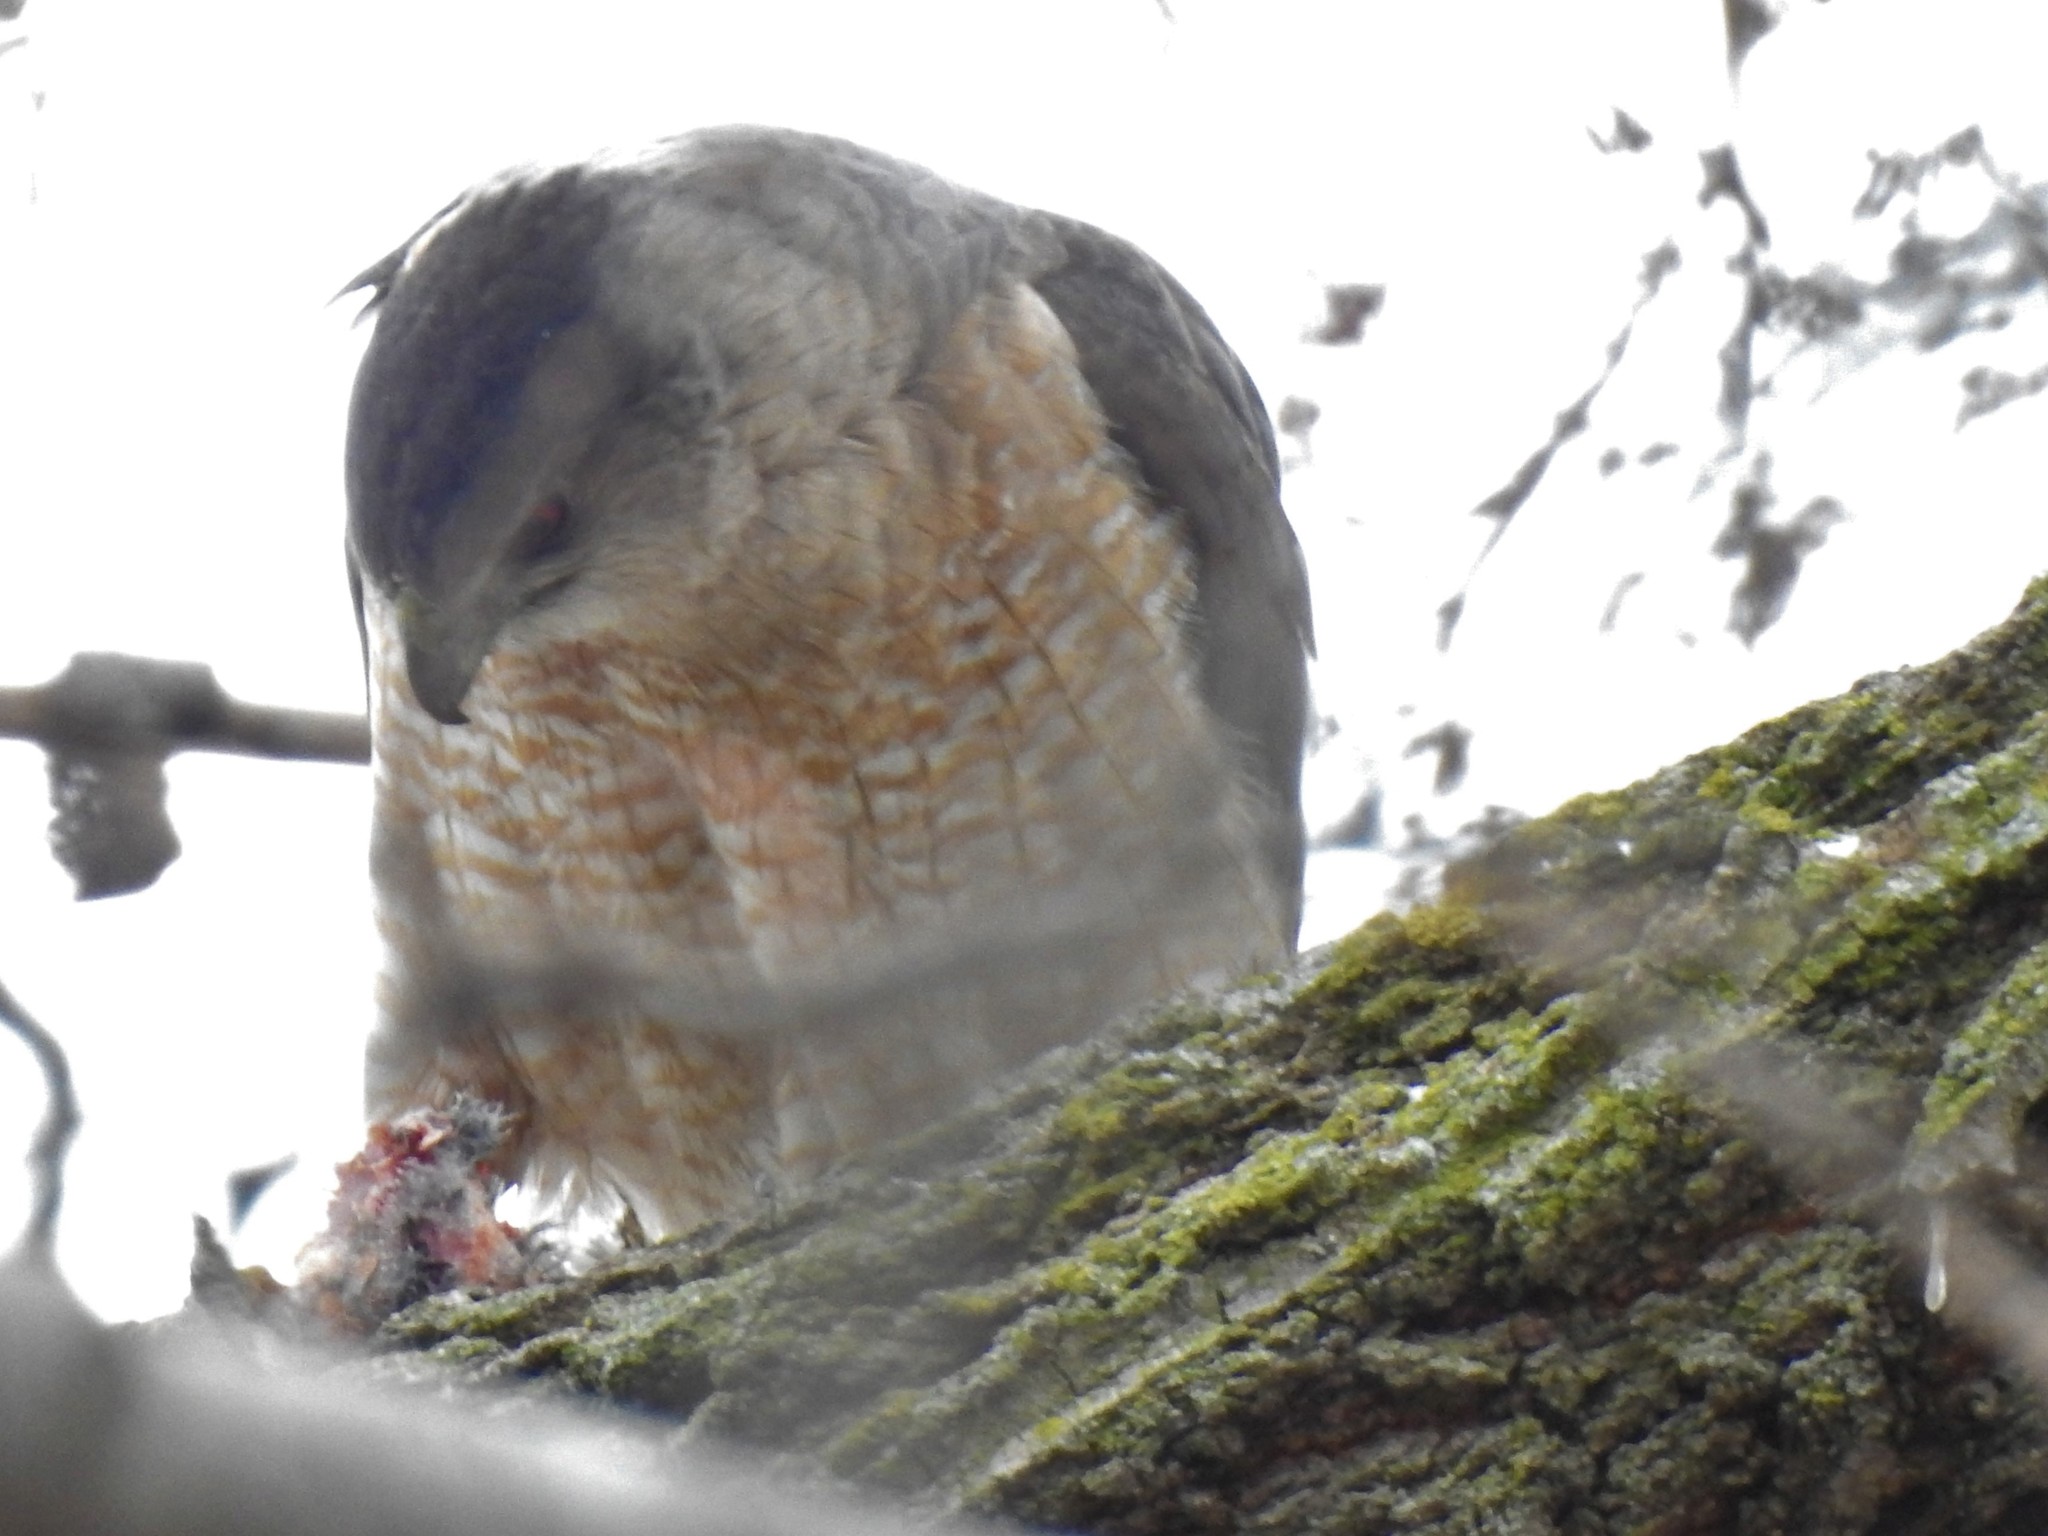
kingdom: Animalia
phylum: Chordata
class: Aves
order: Accipitriformes
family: Accipitridae
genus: Accipiter
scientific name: Accipiter cooperii
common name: Cooper's hawk
